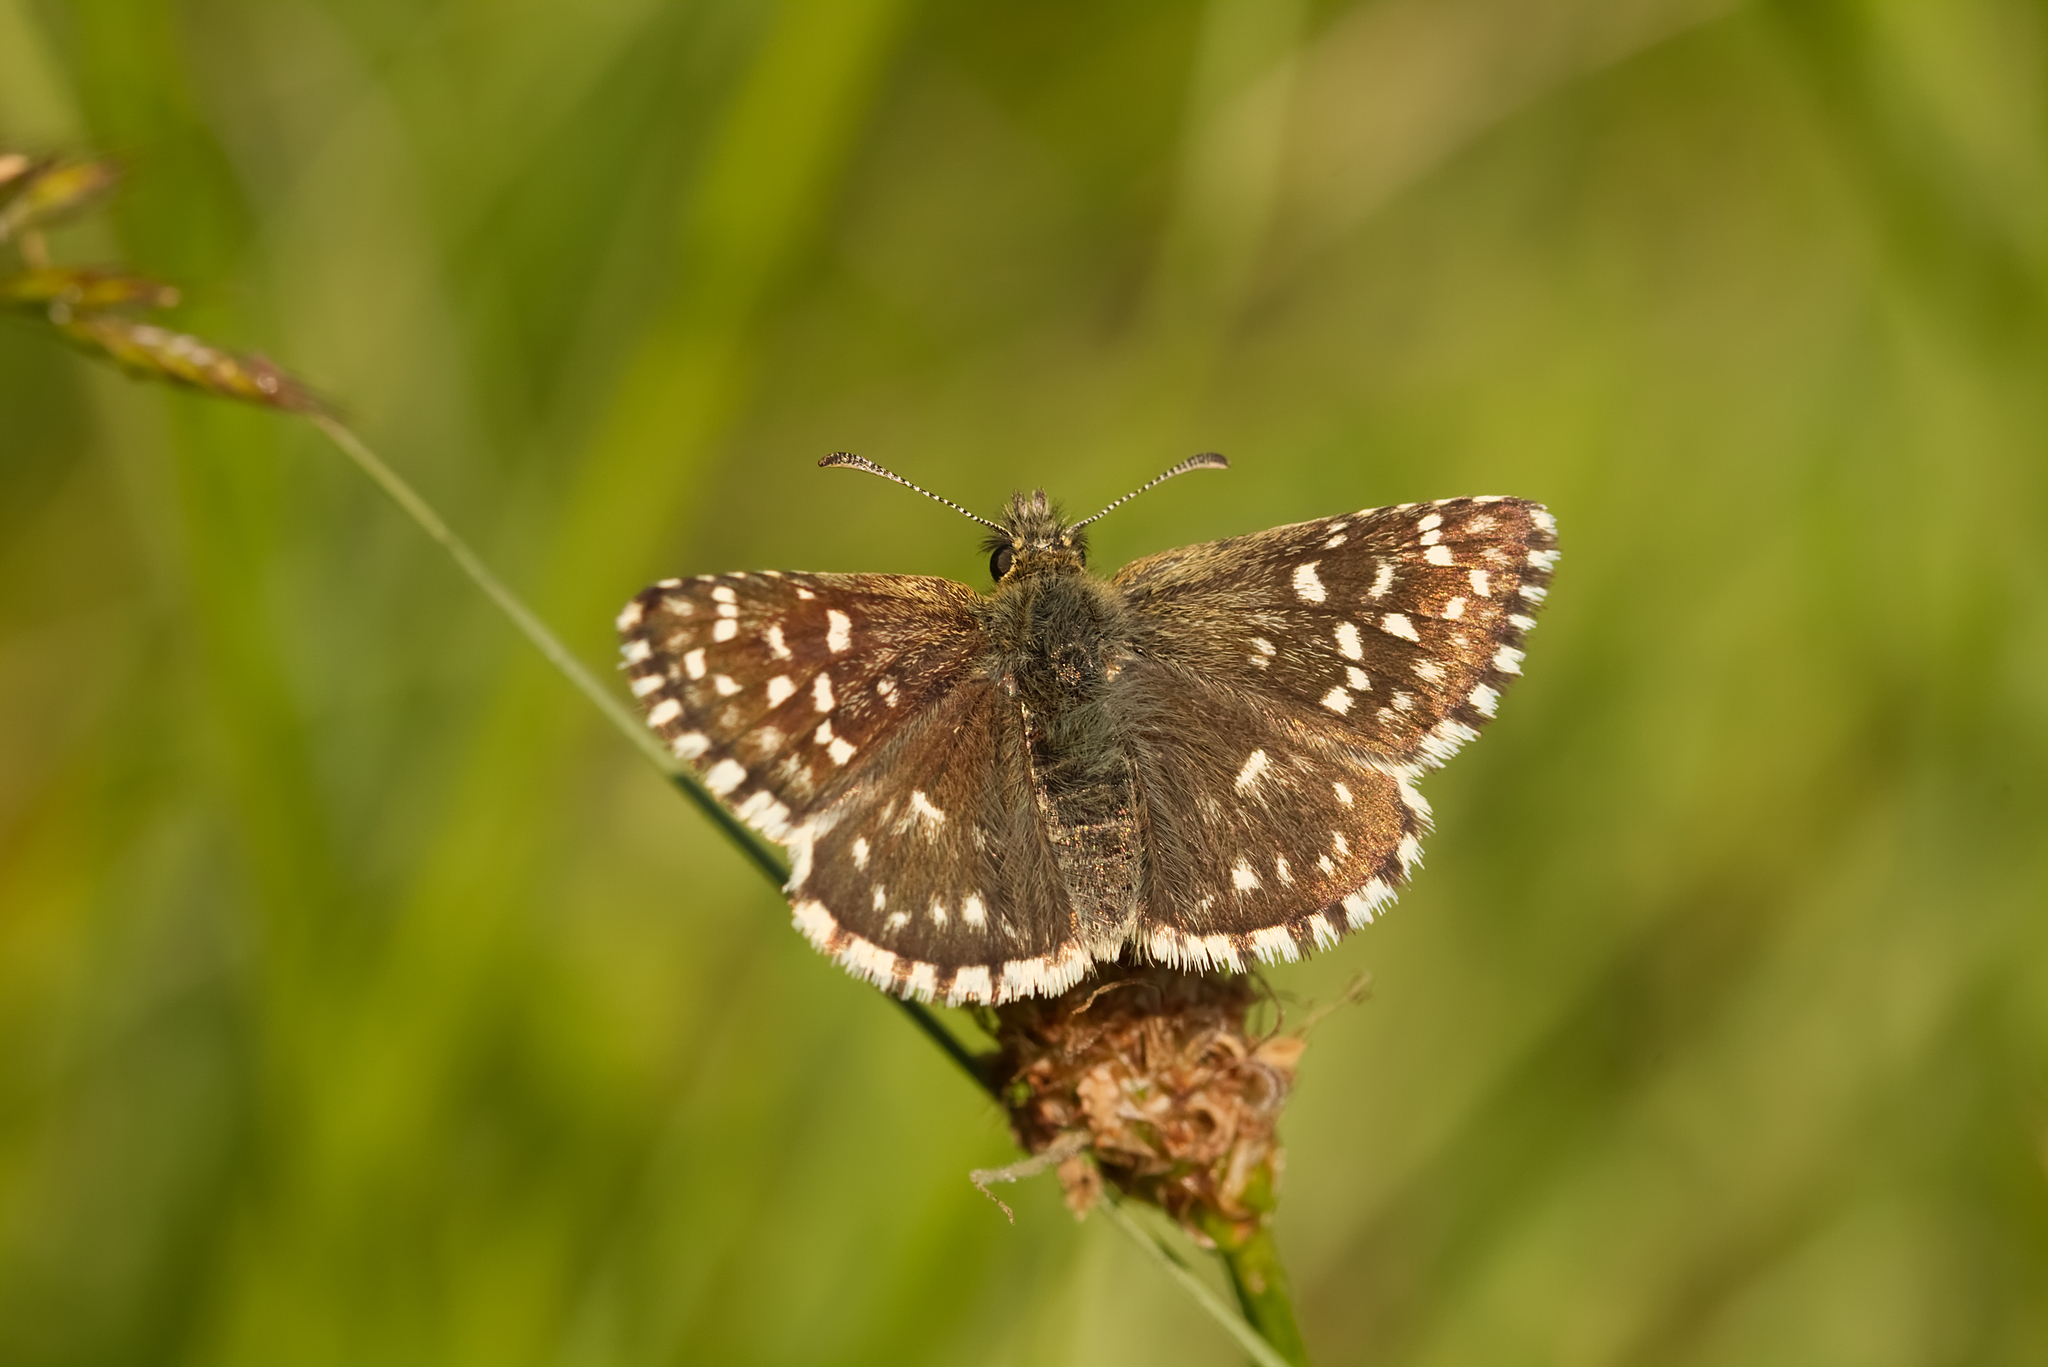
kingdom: Animalia
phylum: Arthropoda
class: Insecta
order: Lepidoptera
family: Hesperiidae
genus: Pyrgus
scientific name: Pyrgus malvae
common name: Grizzled skipper
